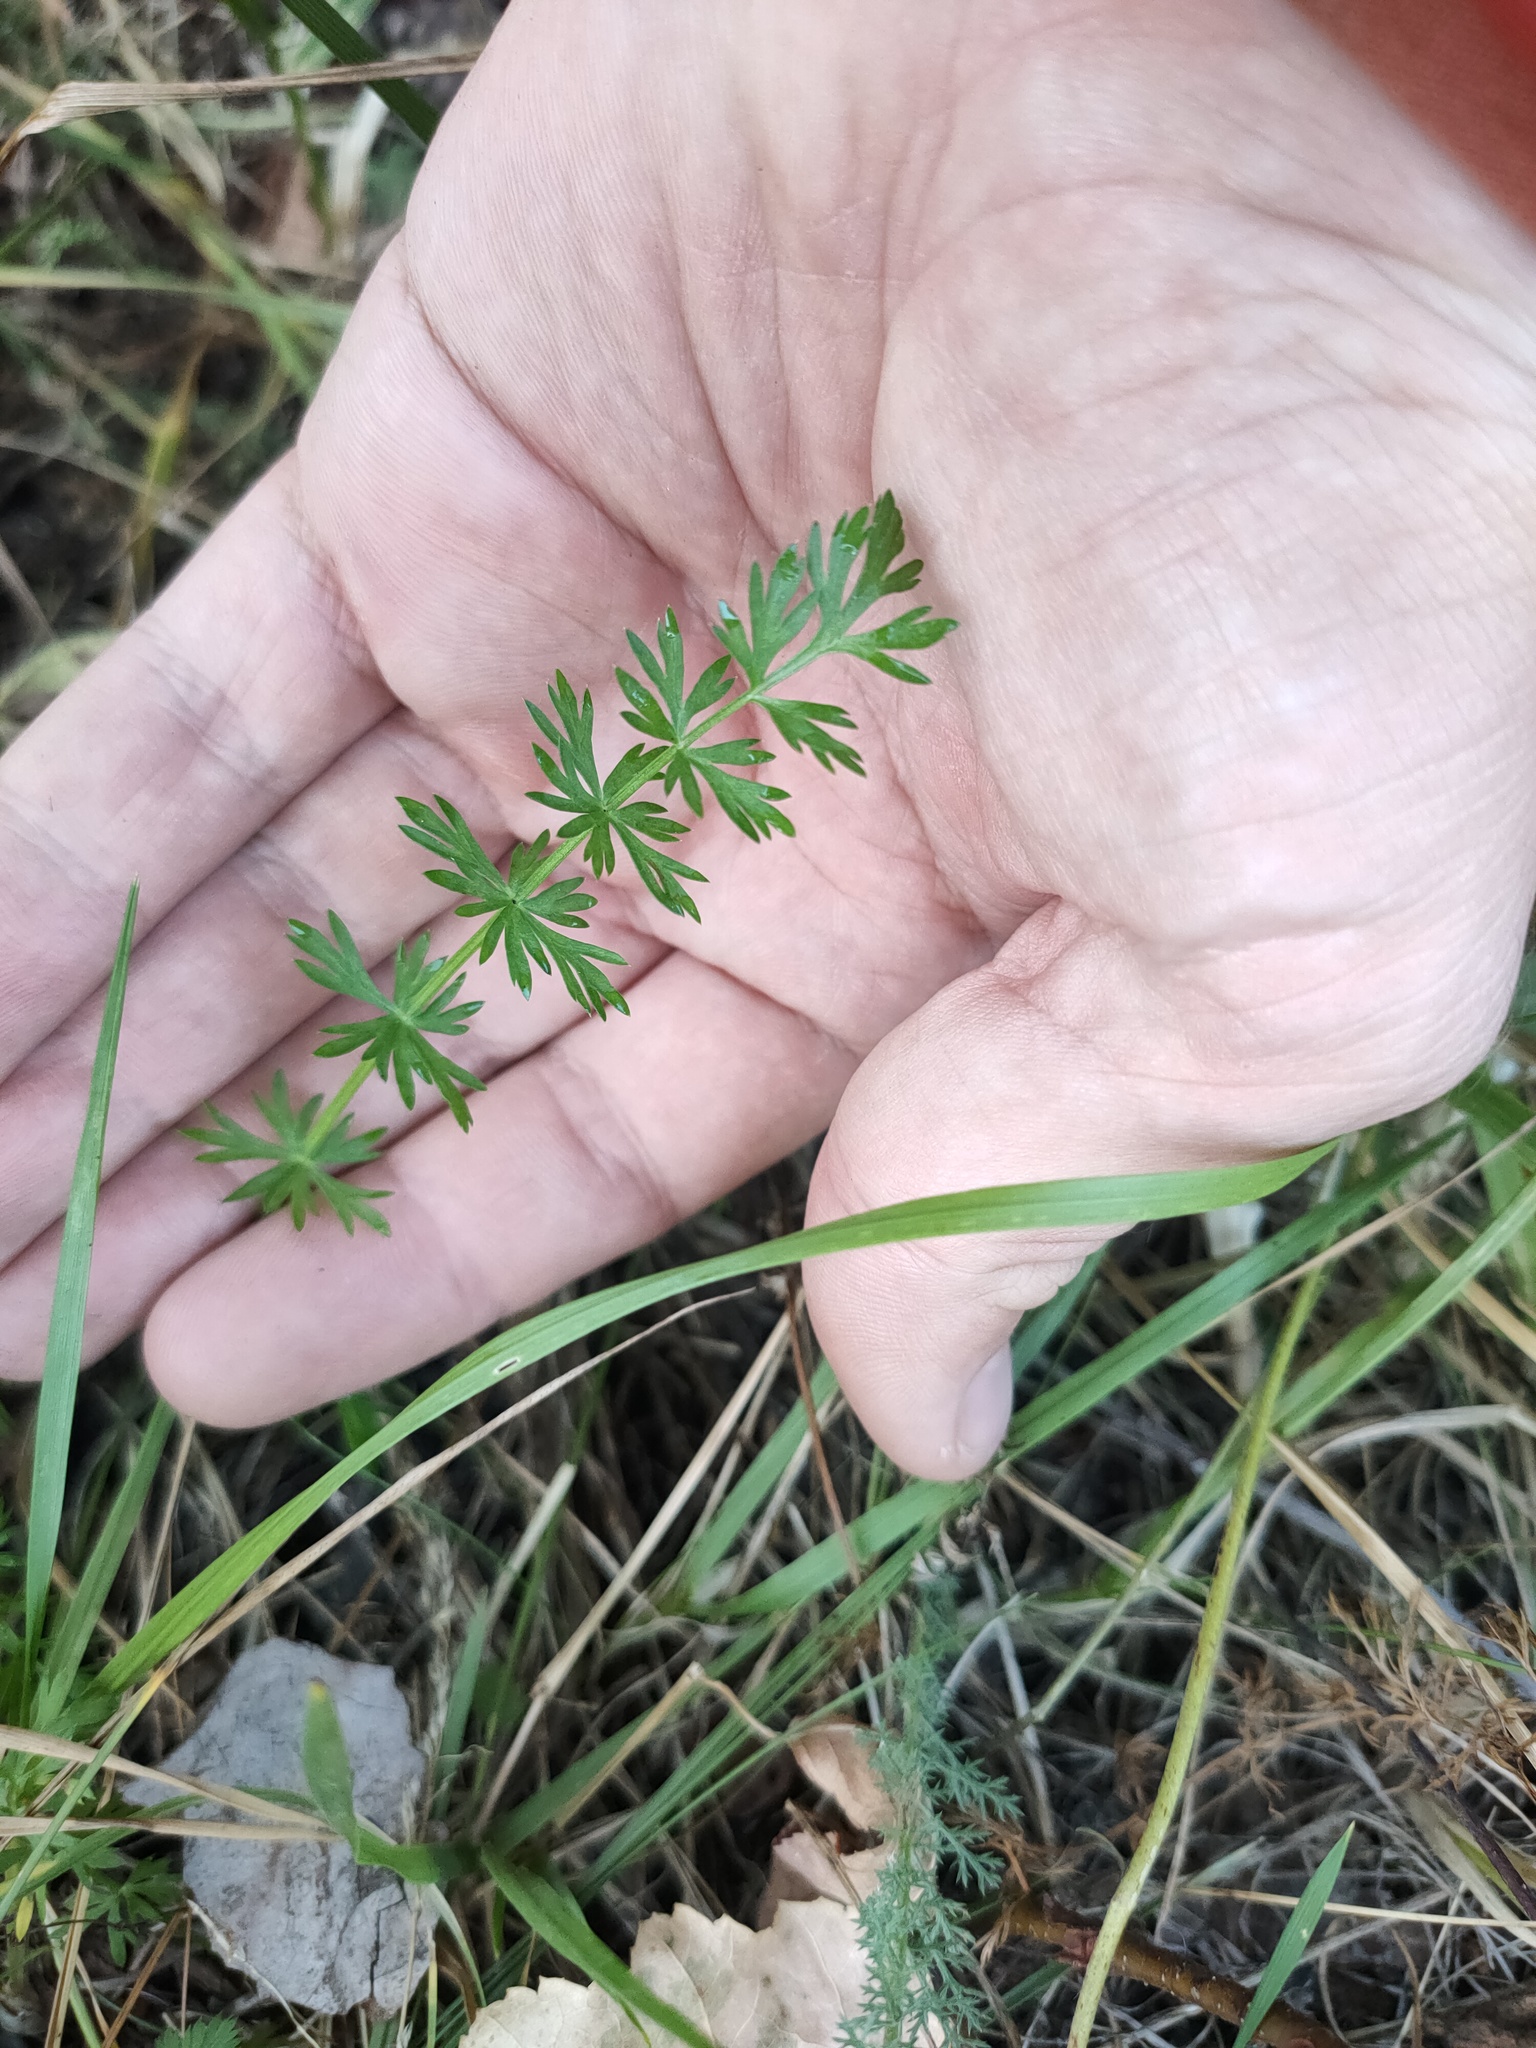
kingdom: Plantae
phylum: Tracheophyta
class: Magnoliopsida
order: Apiales
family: Apiaceae
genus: Carum
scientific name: Carum carvi
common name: Caraway
